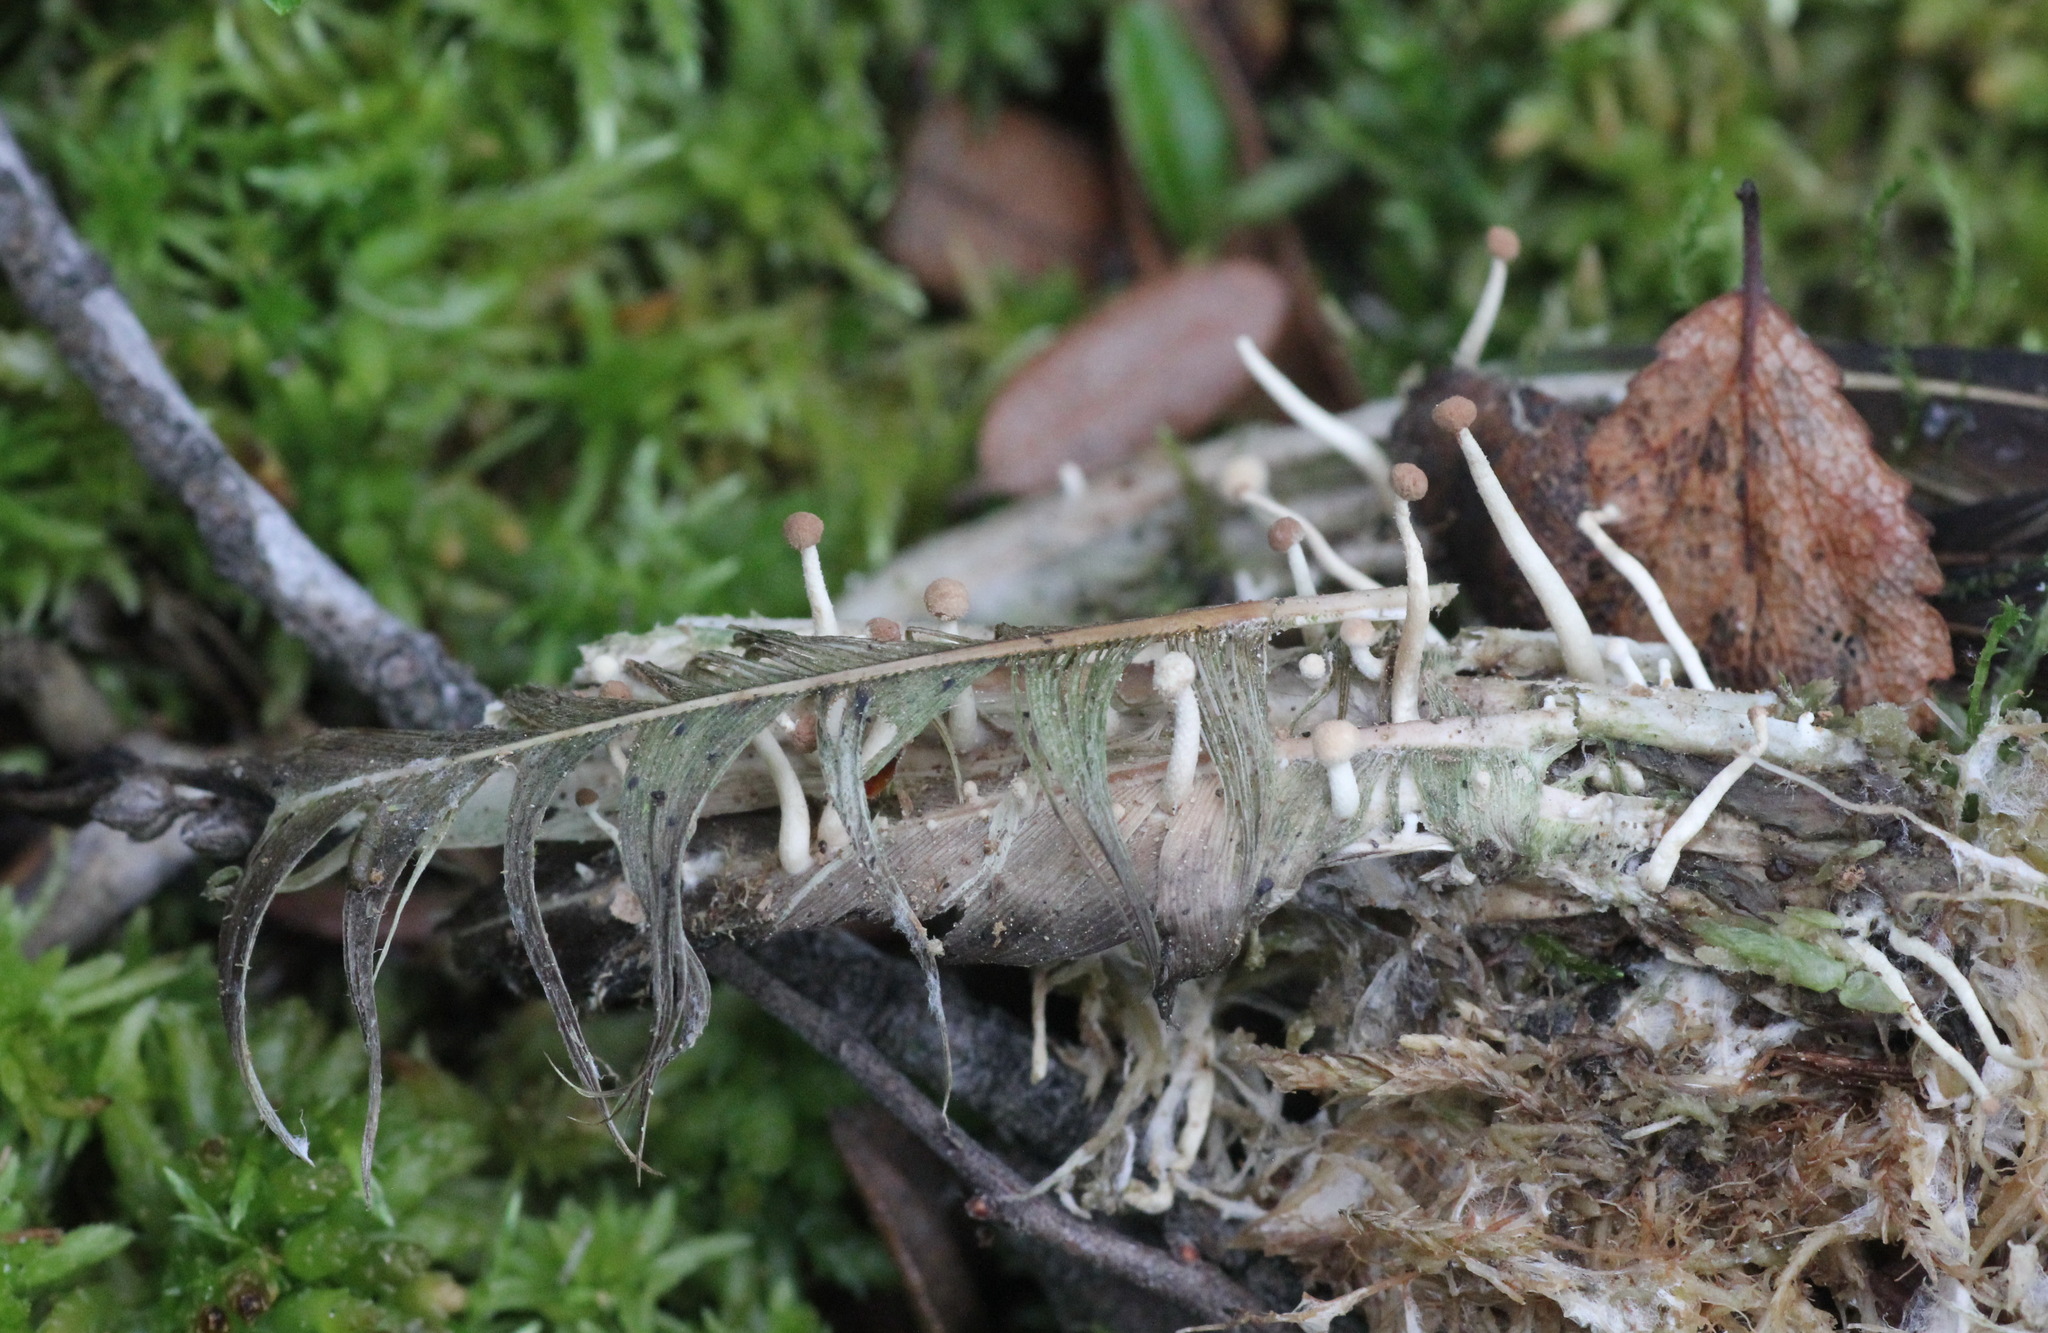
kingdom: Fungi
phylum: Ascomycota
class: Eurotiomycetes
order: Onygenales
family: Onygenaceae
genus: Onygena
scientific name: Onygena corvina
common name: Feather stalkball
